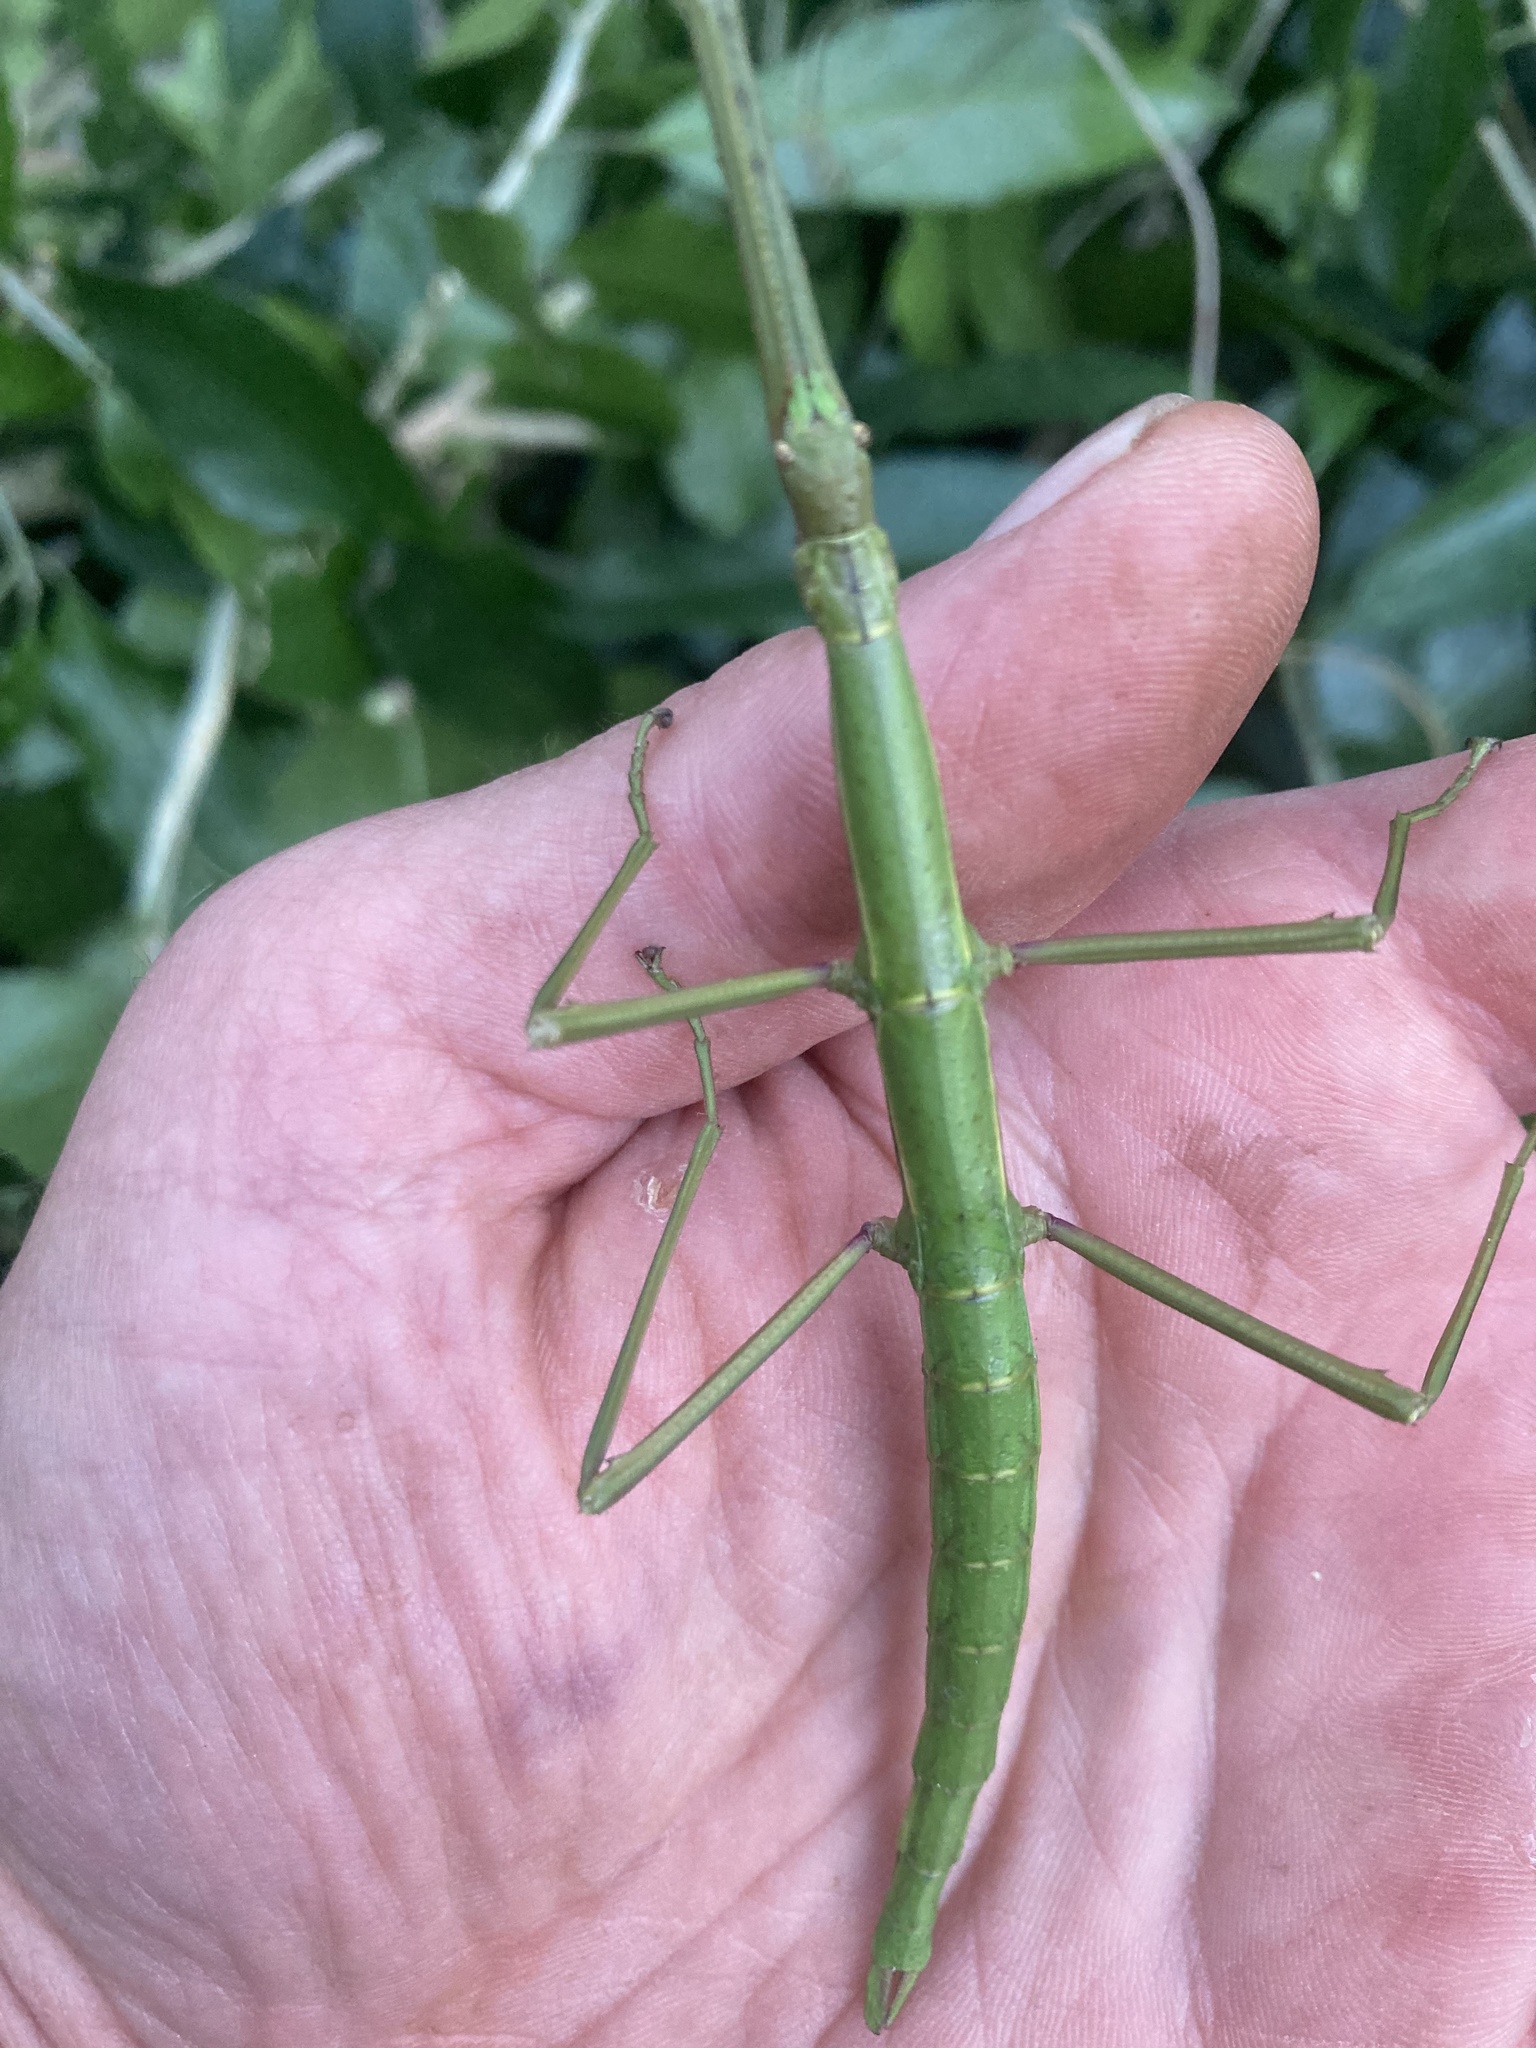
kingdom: Animalia
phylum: Arthropoda
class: Insecta
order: Phasmida
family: Phasmatidae
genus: Clitarchus
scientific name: Clitarchus hookeri
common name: Smooth stick insect
